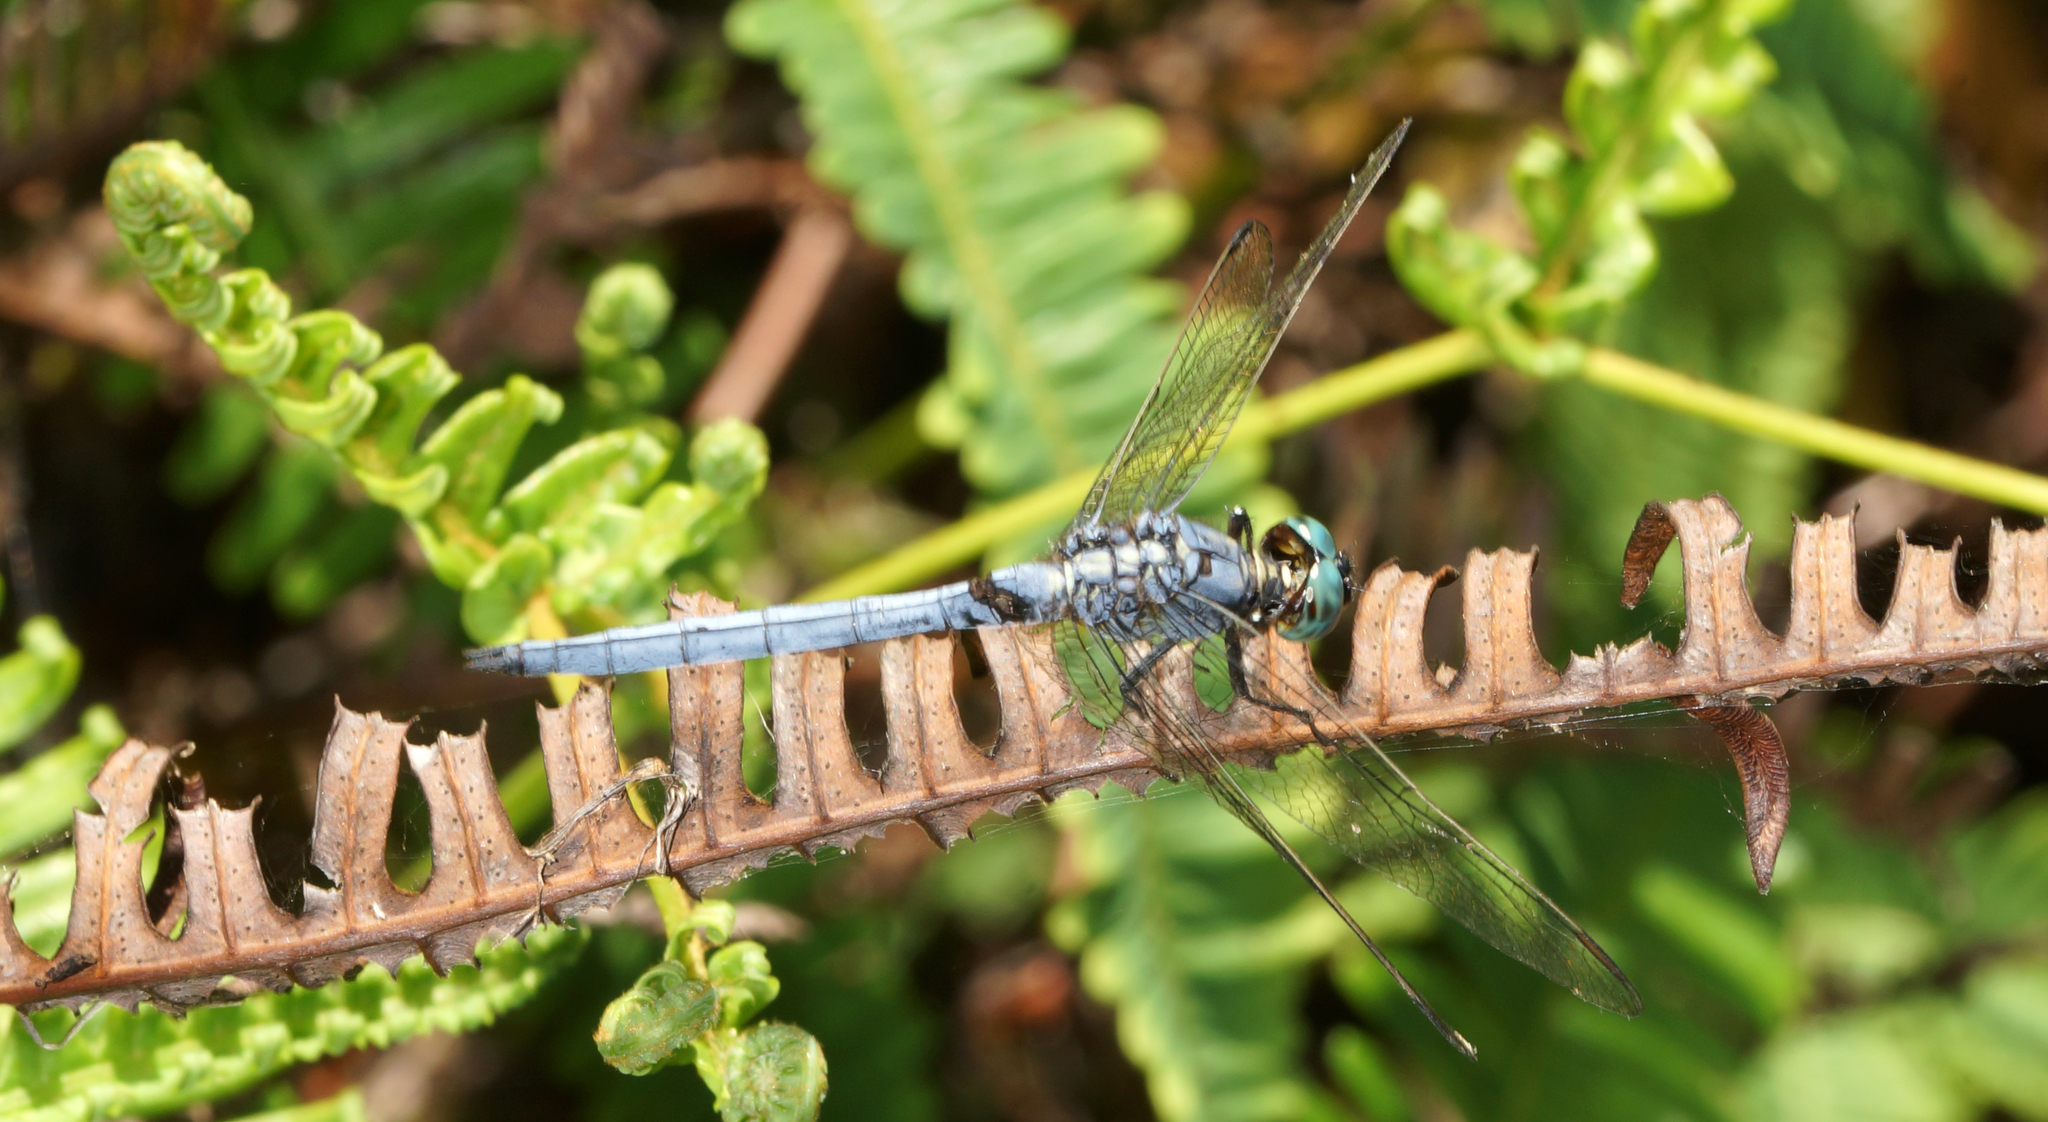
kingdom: Animalia
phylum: Arthropoda
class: Insecta
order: Odonata
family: Libellulidae
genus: Orthetrum
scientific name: Orthetrum luzonicum
